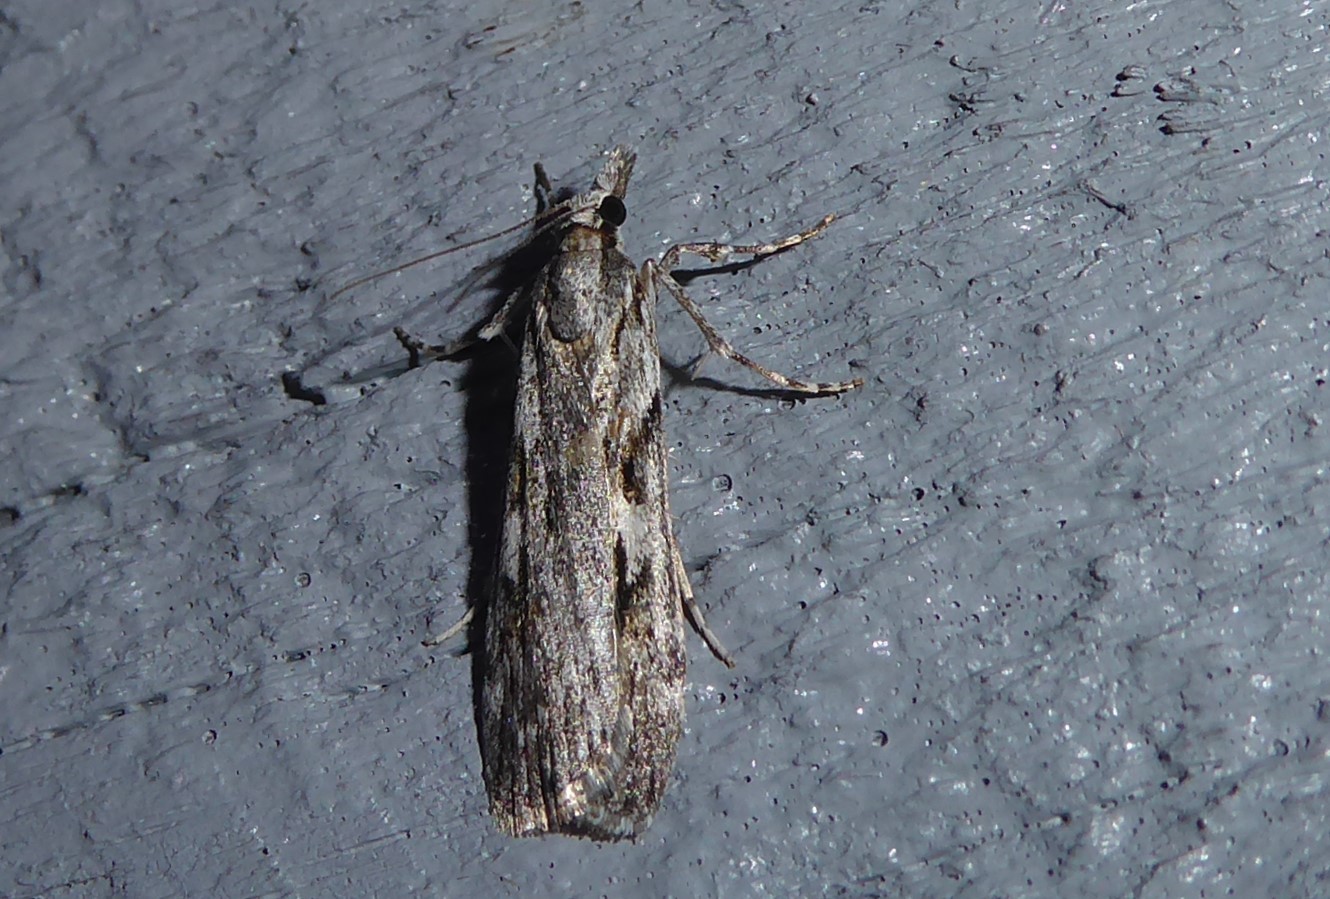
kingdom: Animalia
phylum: Arthropoda
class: Insecta
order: Lepidoptera
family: Crambidae
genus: Scoparia
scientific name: Scoparia halopis
